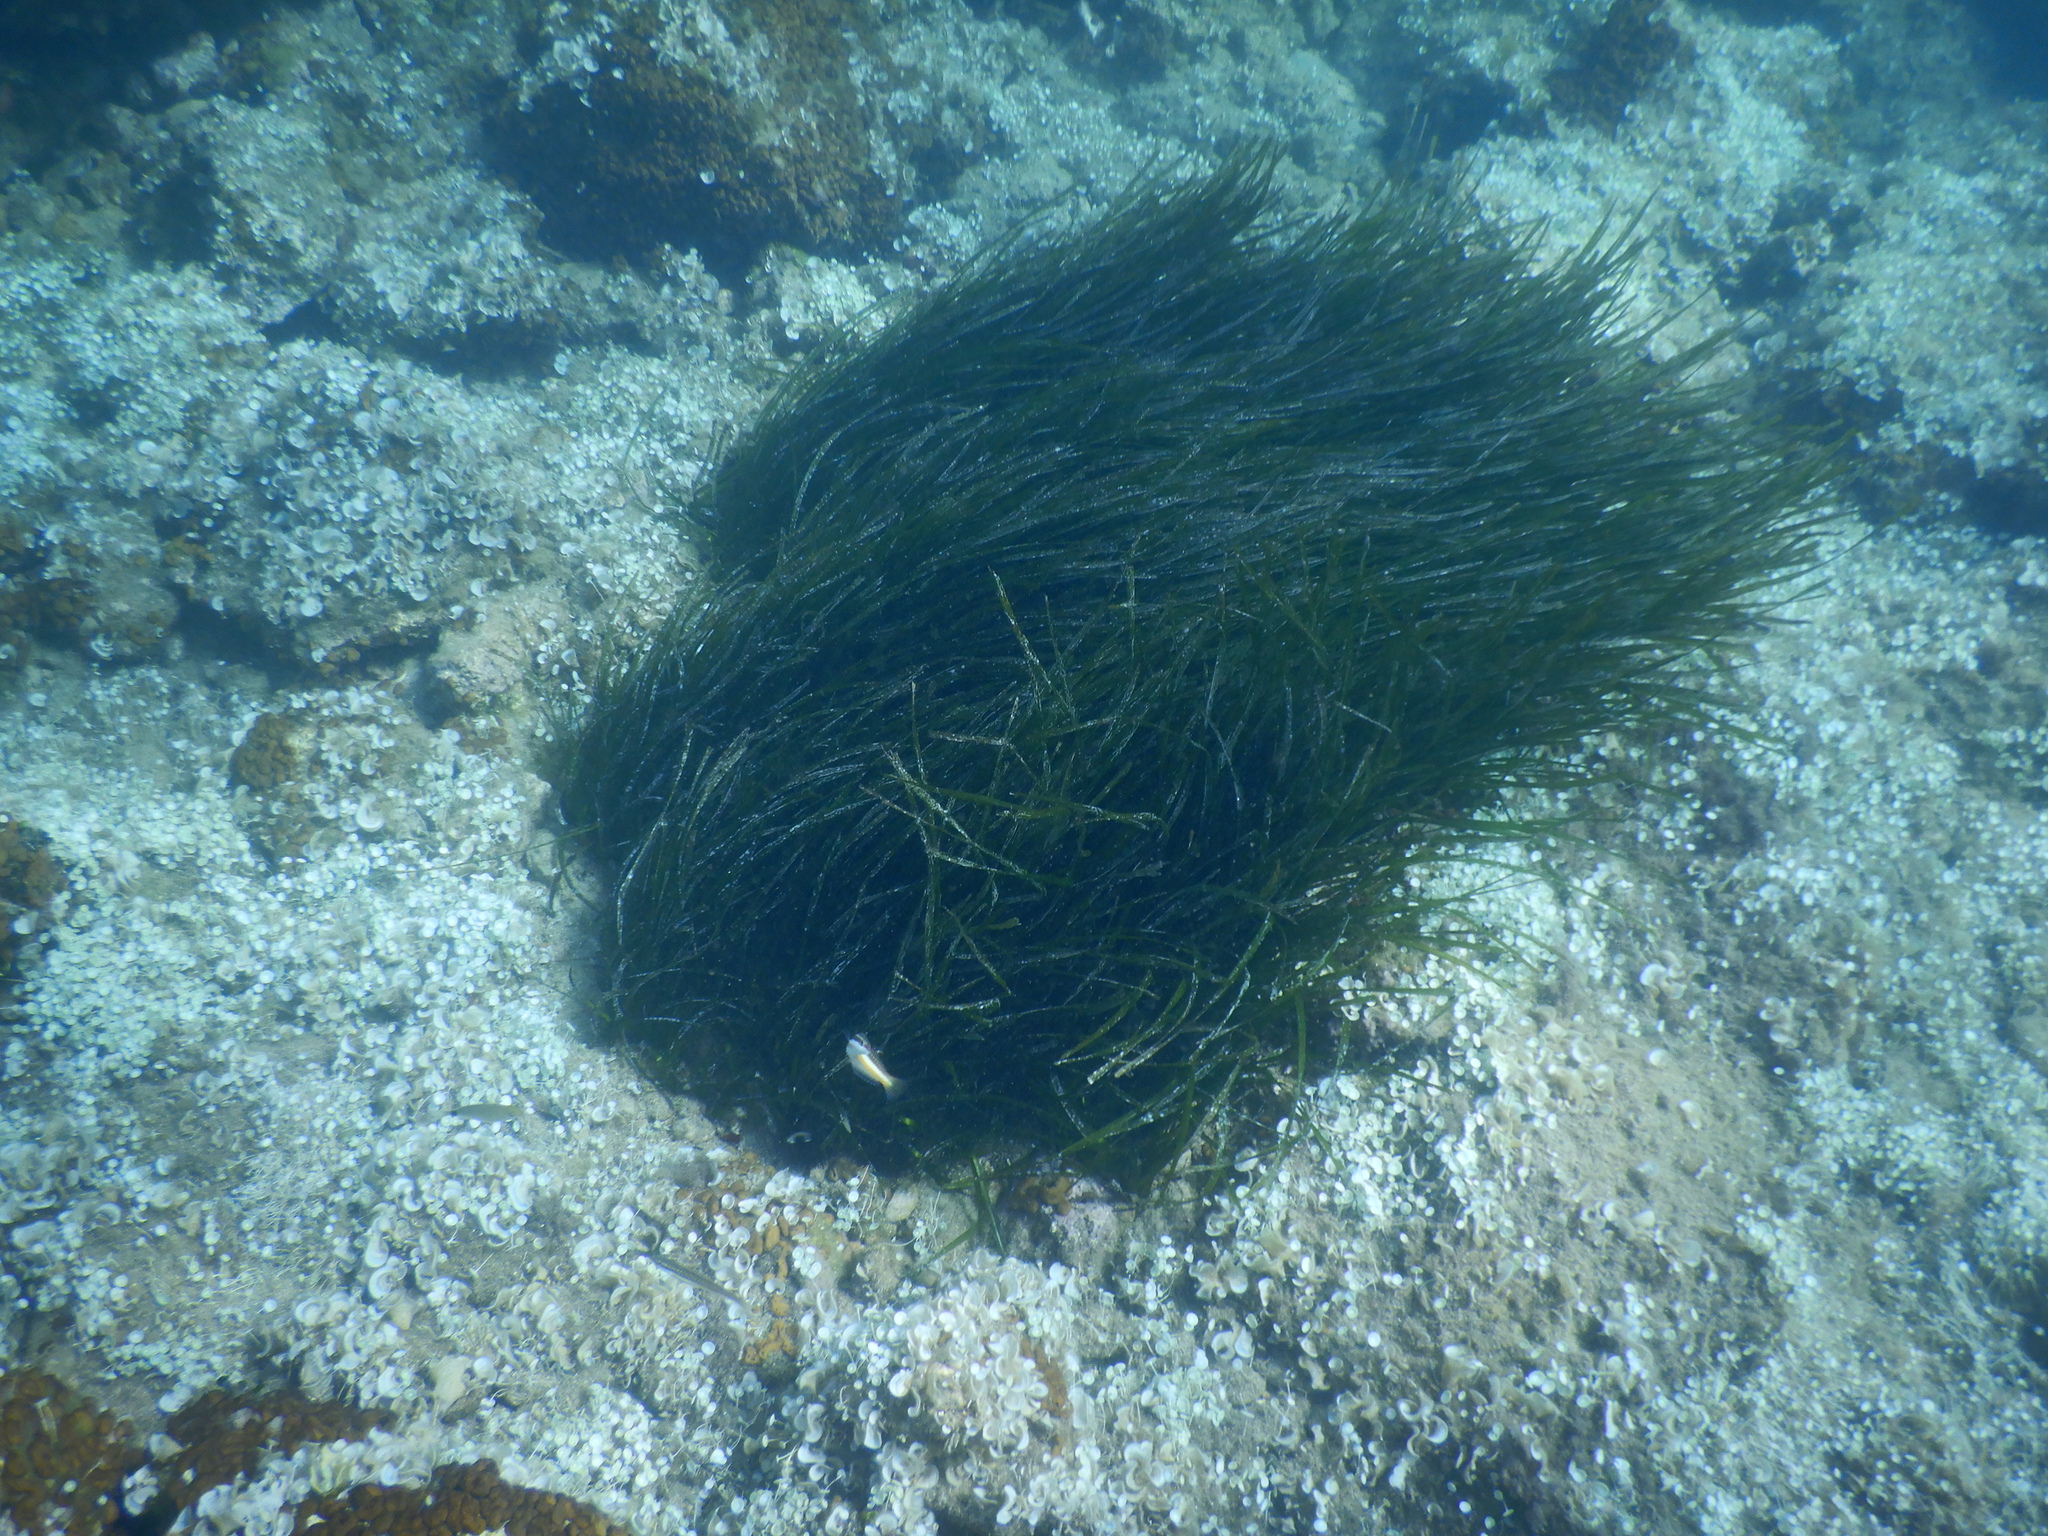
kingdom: Plantae
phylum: Tracheophyta
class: Liliopsida
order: Alismatales
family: Posidoniaceae
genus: Posidonia
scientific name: Posidonia oceanica
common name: Mediterranean tapeweed
